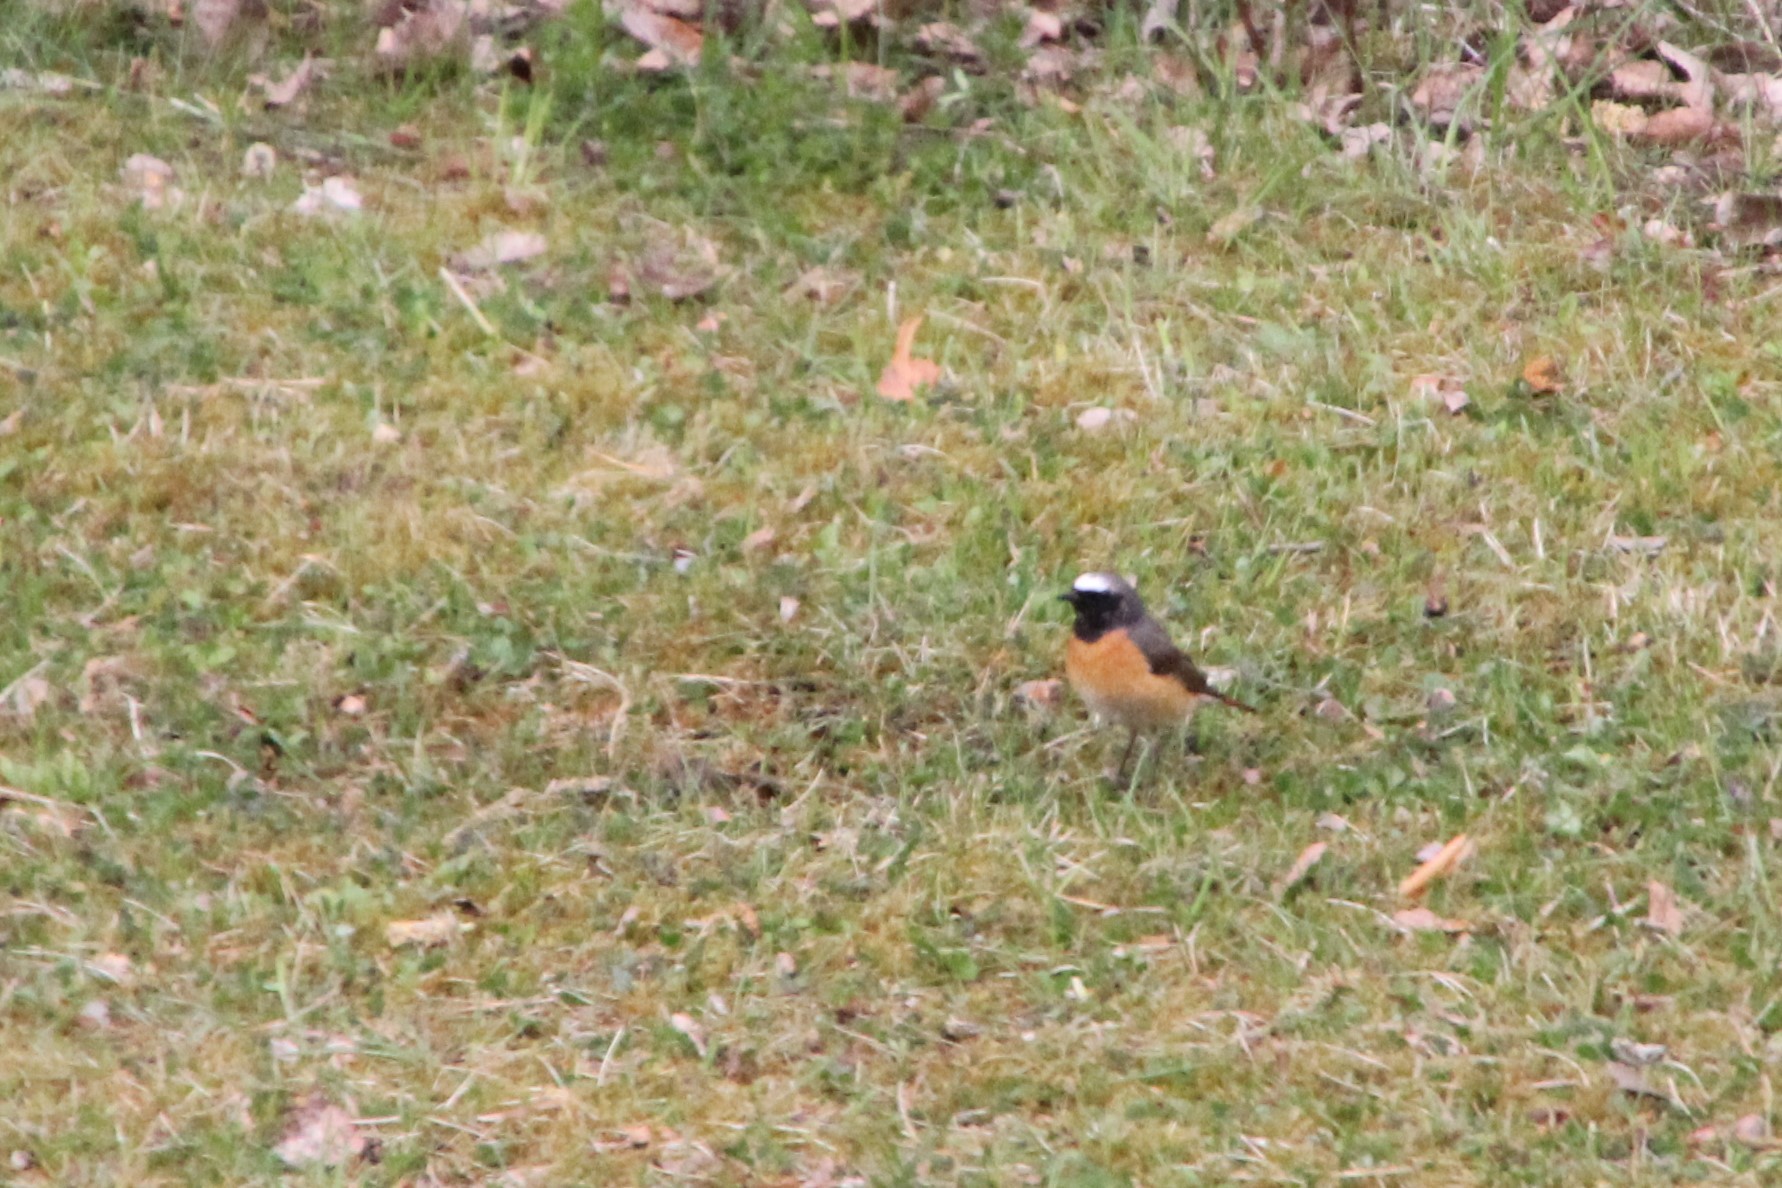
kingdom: Animalia
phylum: Chordata
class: Aves
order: Passeriformes
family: Muscicapidae
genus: Phoenicurus
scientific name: Phoenicurus phoenicurus
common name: Common redstart
